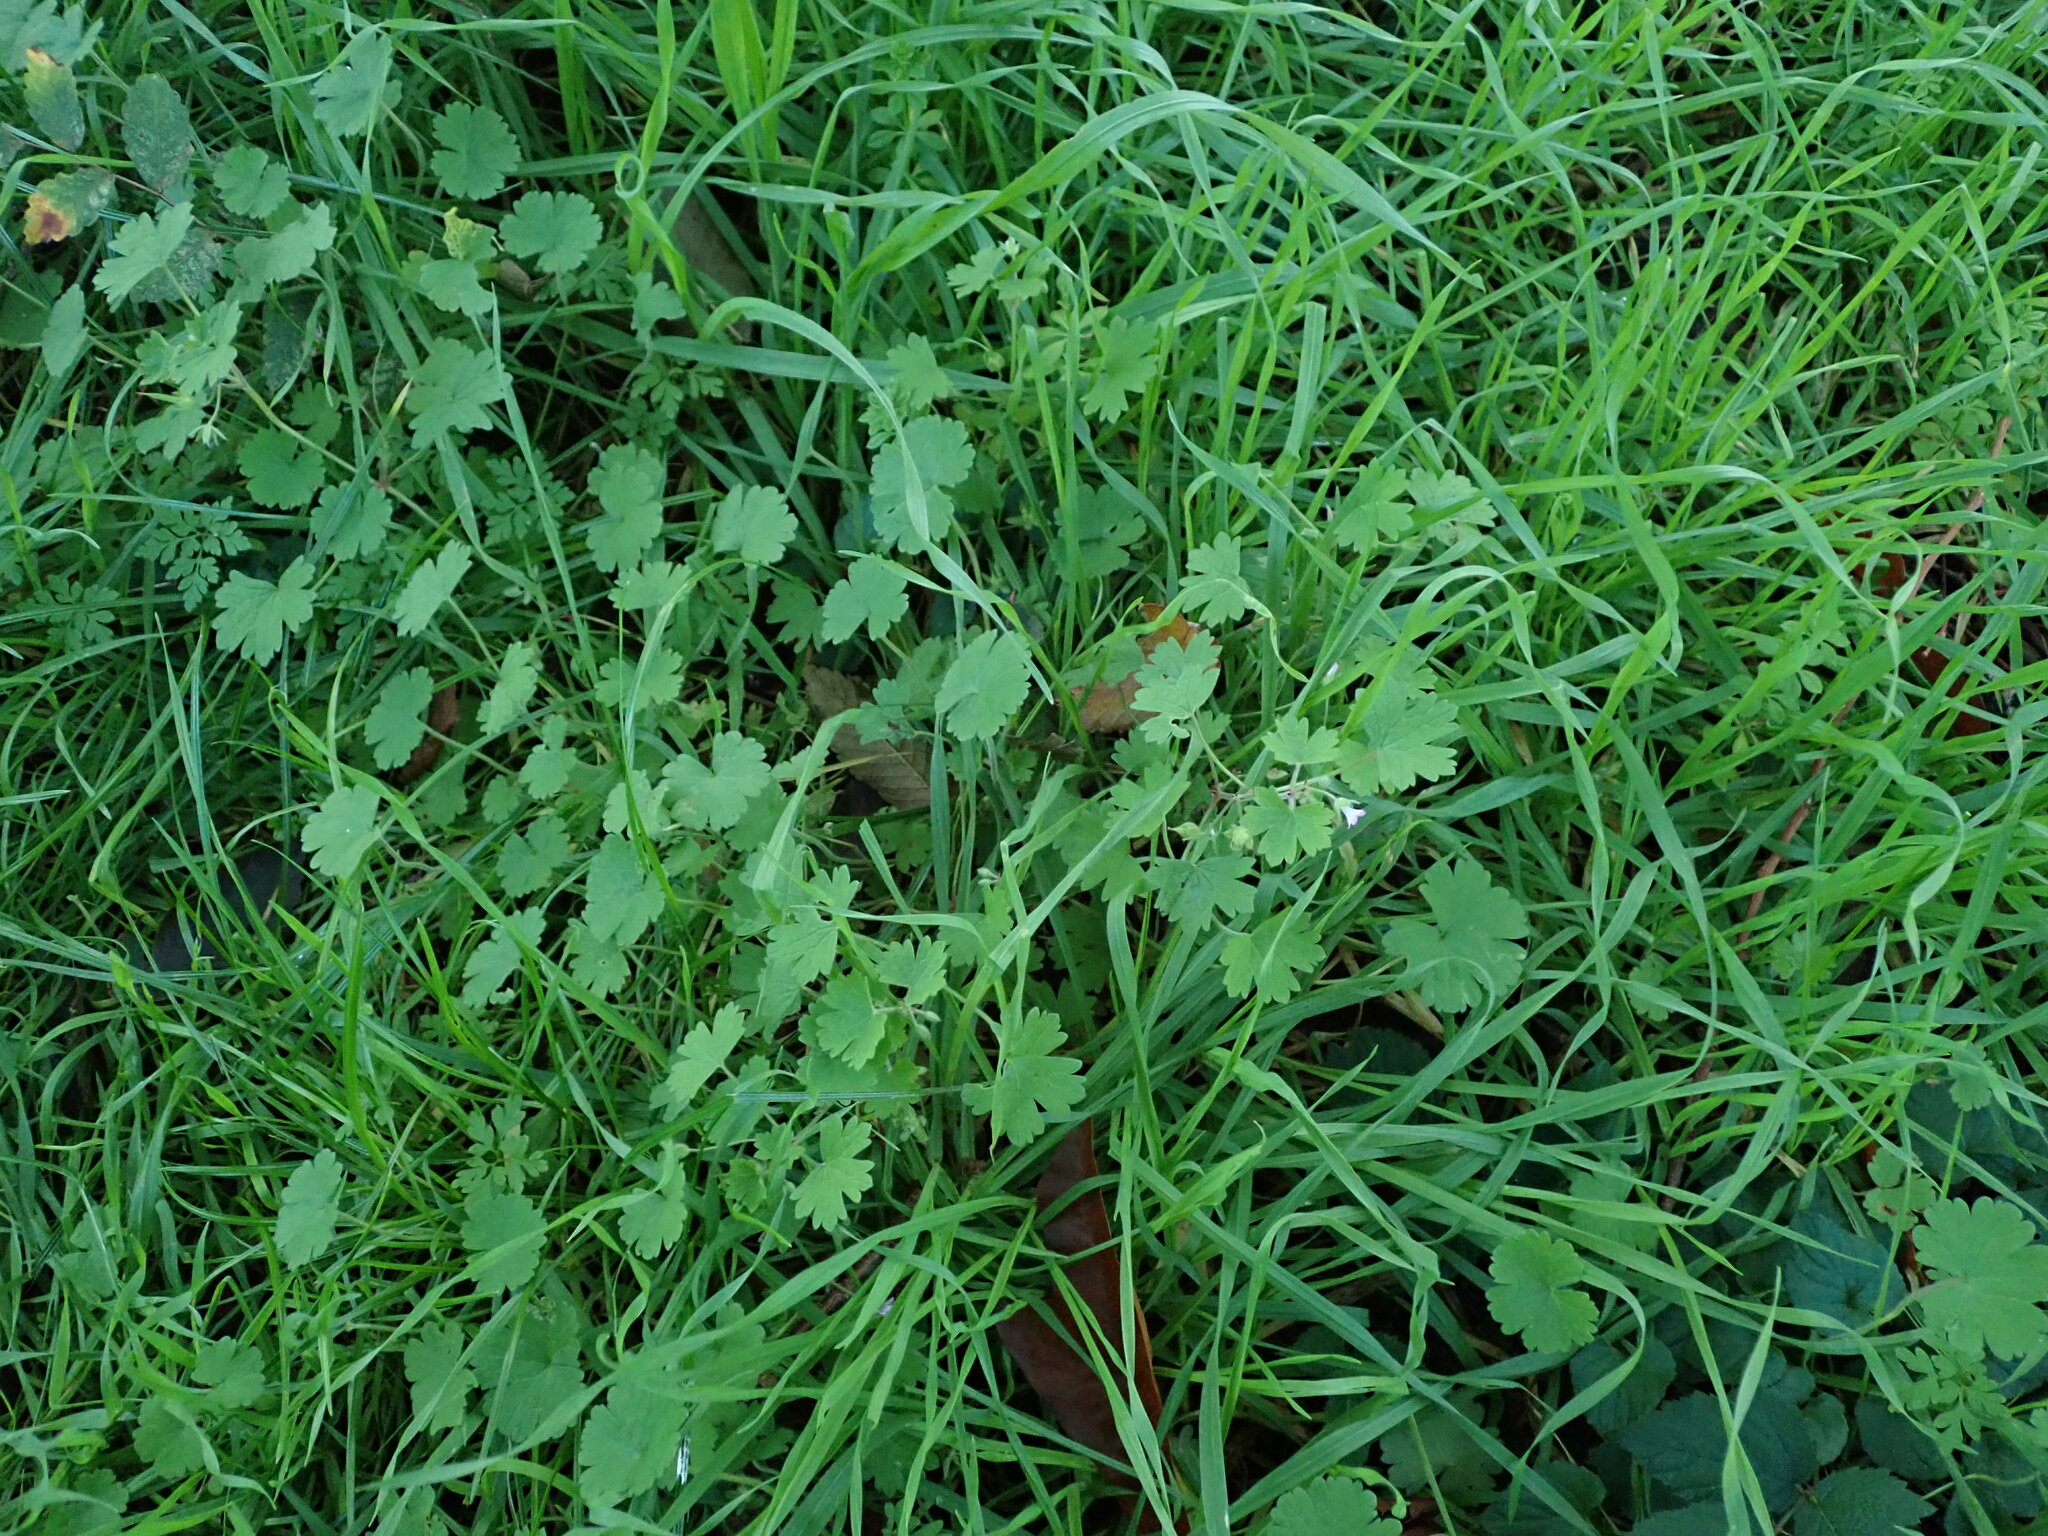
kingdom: Plantae
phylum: Tracheophyta
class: Magnoliopsida
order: Geraniales
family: Geraniaceae
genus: Geranium
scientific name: Geranium rotundifolium
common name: Round-leaved crane's-bill
